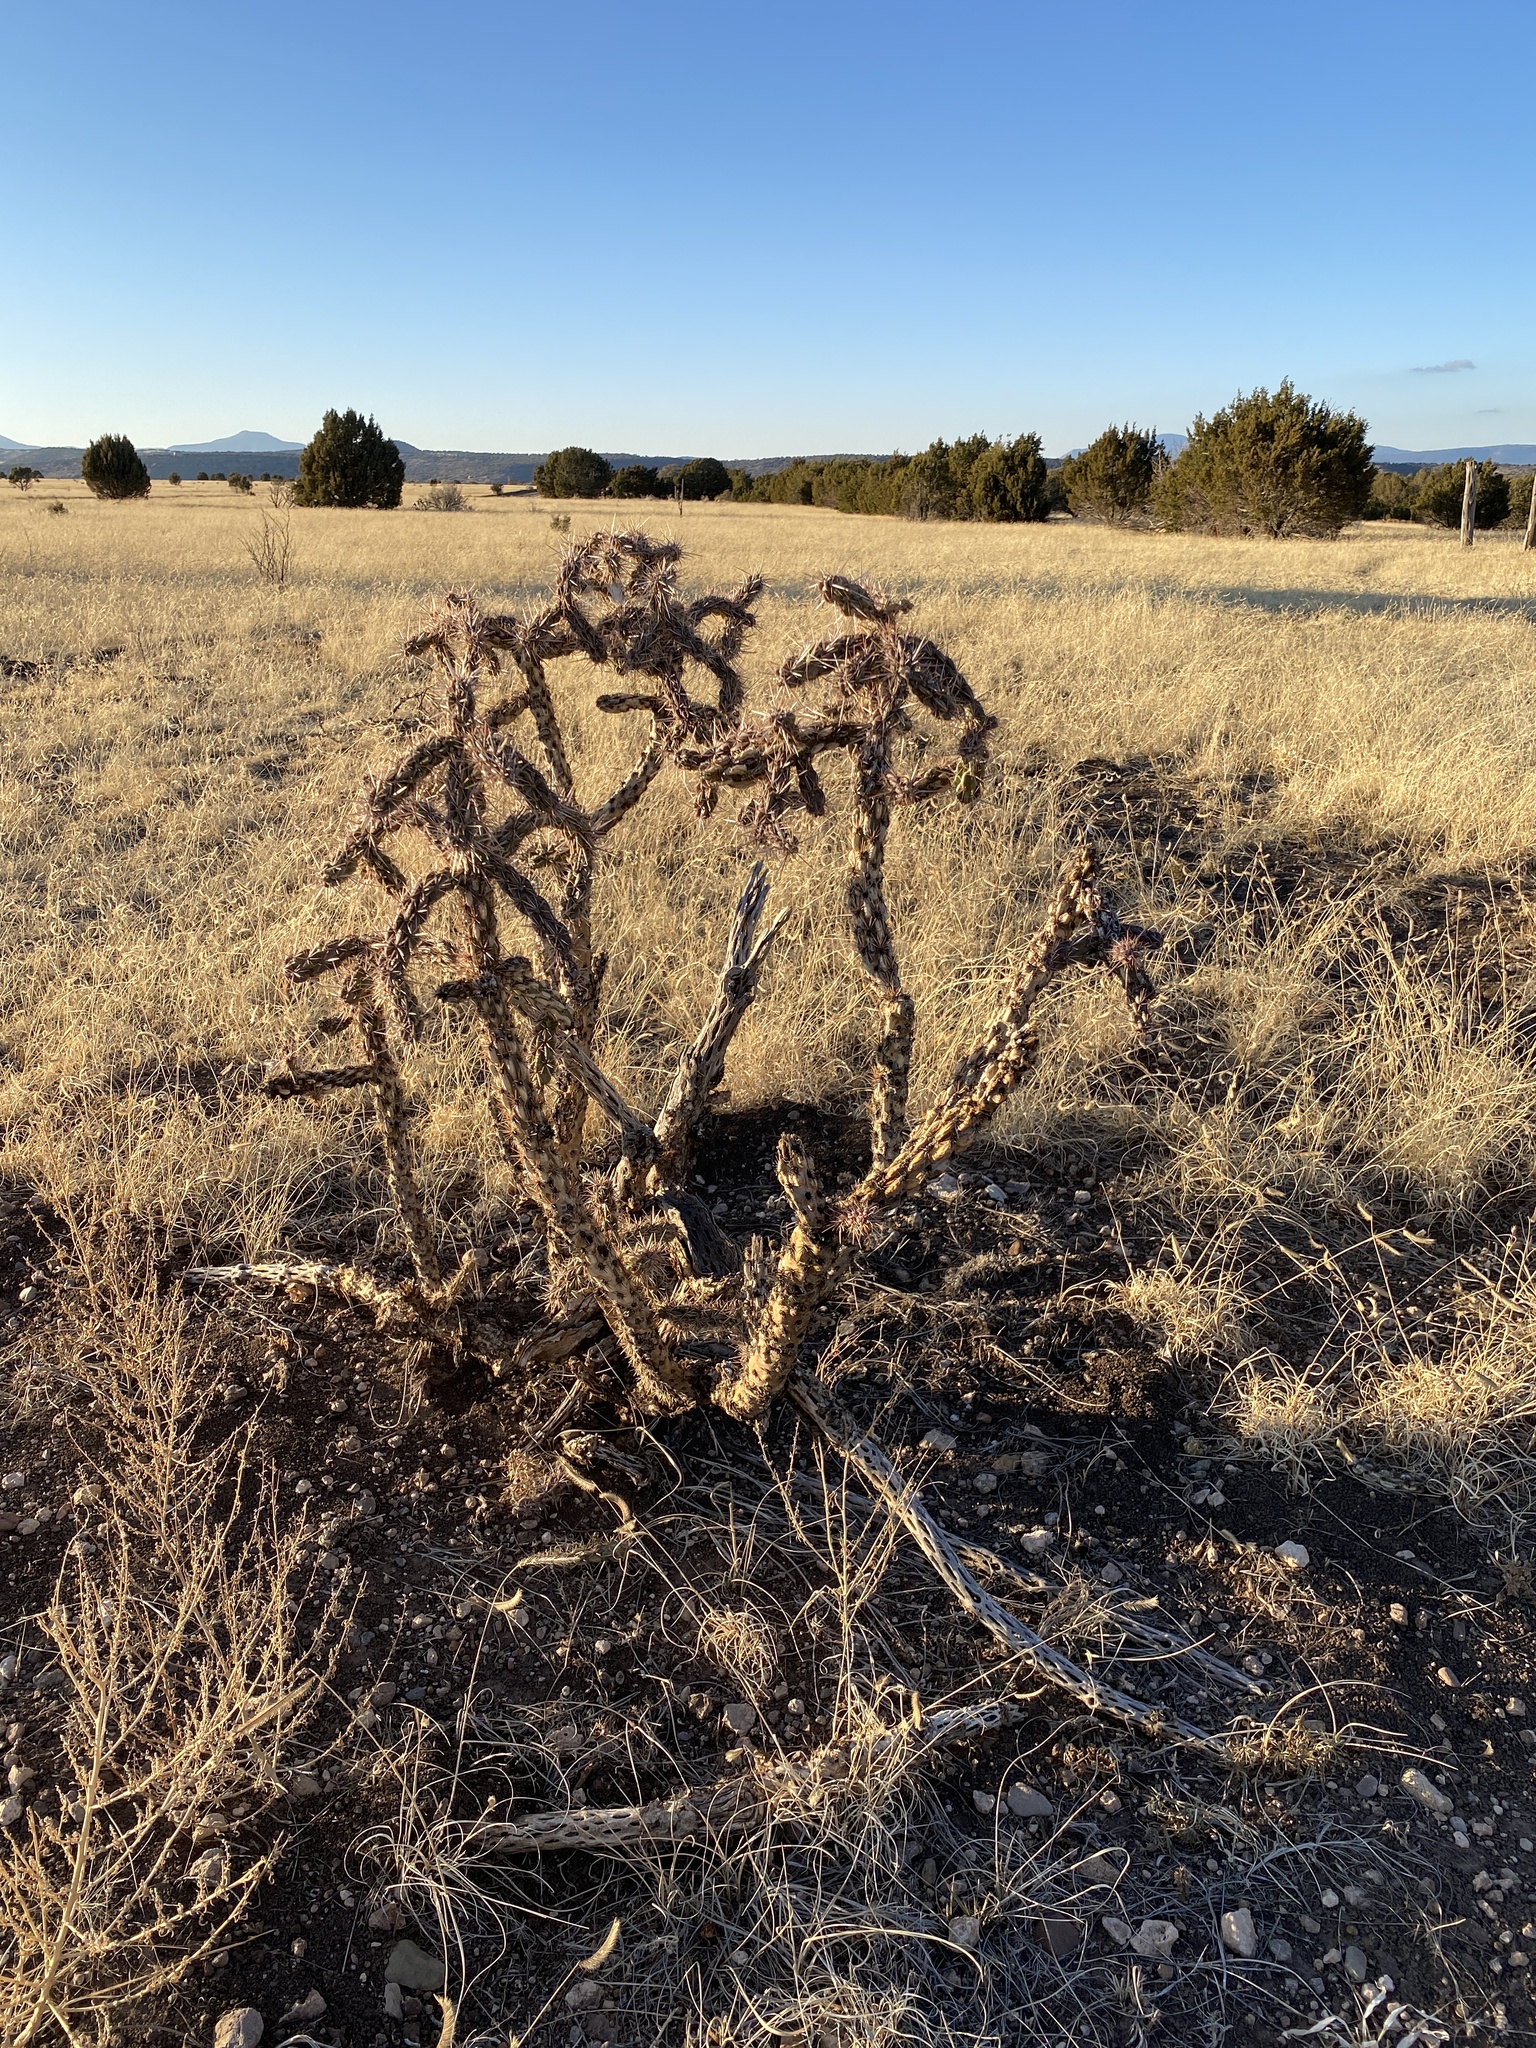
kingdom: Plantae
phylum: Tracheophyta
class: Magnoliopsida
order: Caryophyllales
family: Cactaceae
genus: Cylindropuntia
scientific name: Cylindropuntia imbricata
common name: Candelabrum cactus
